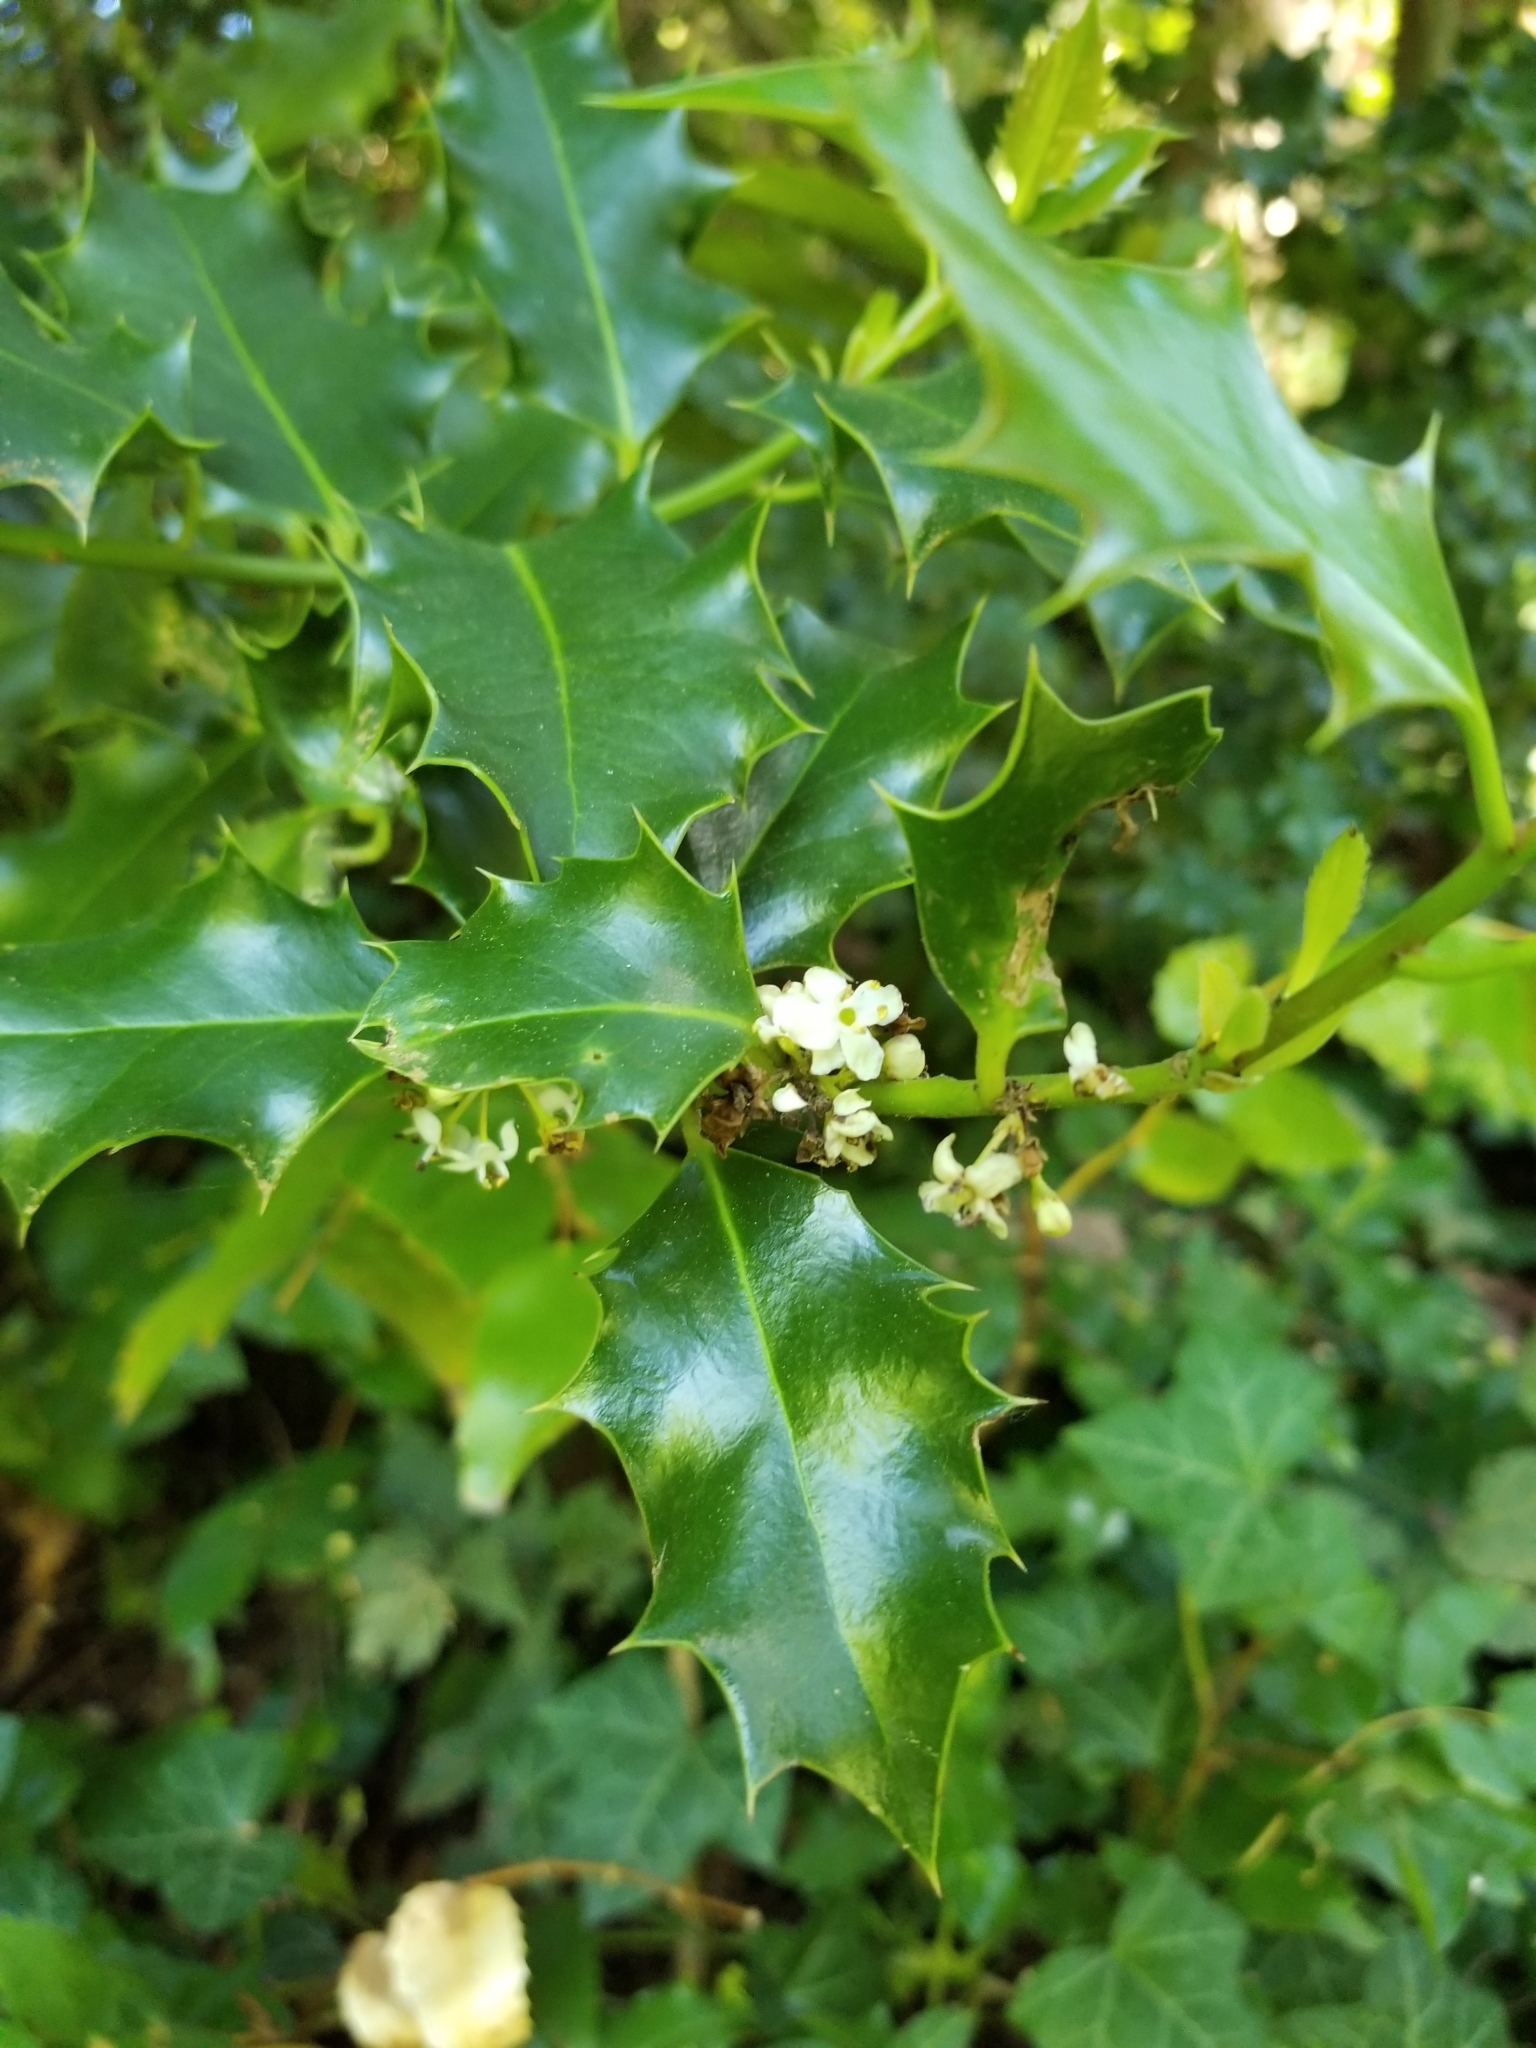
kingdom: Plantae
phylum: Tracheophyta
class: Magnoliopsida
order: Aquifoliales
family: Aquifoliaceae
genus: Ilex
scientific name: Ilex aquifolium
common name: English holly
